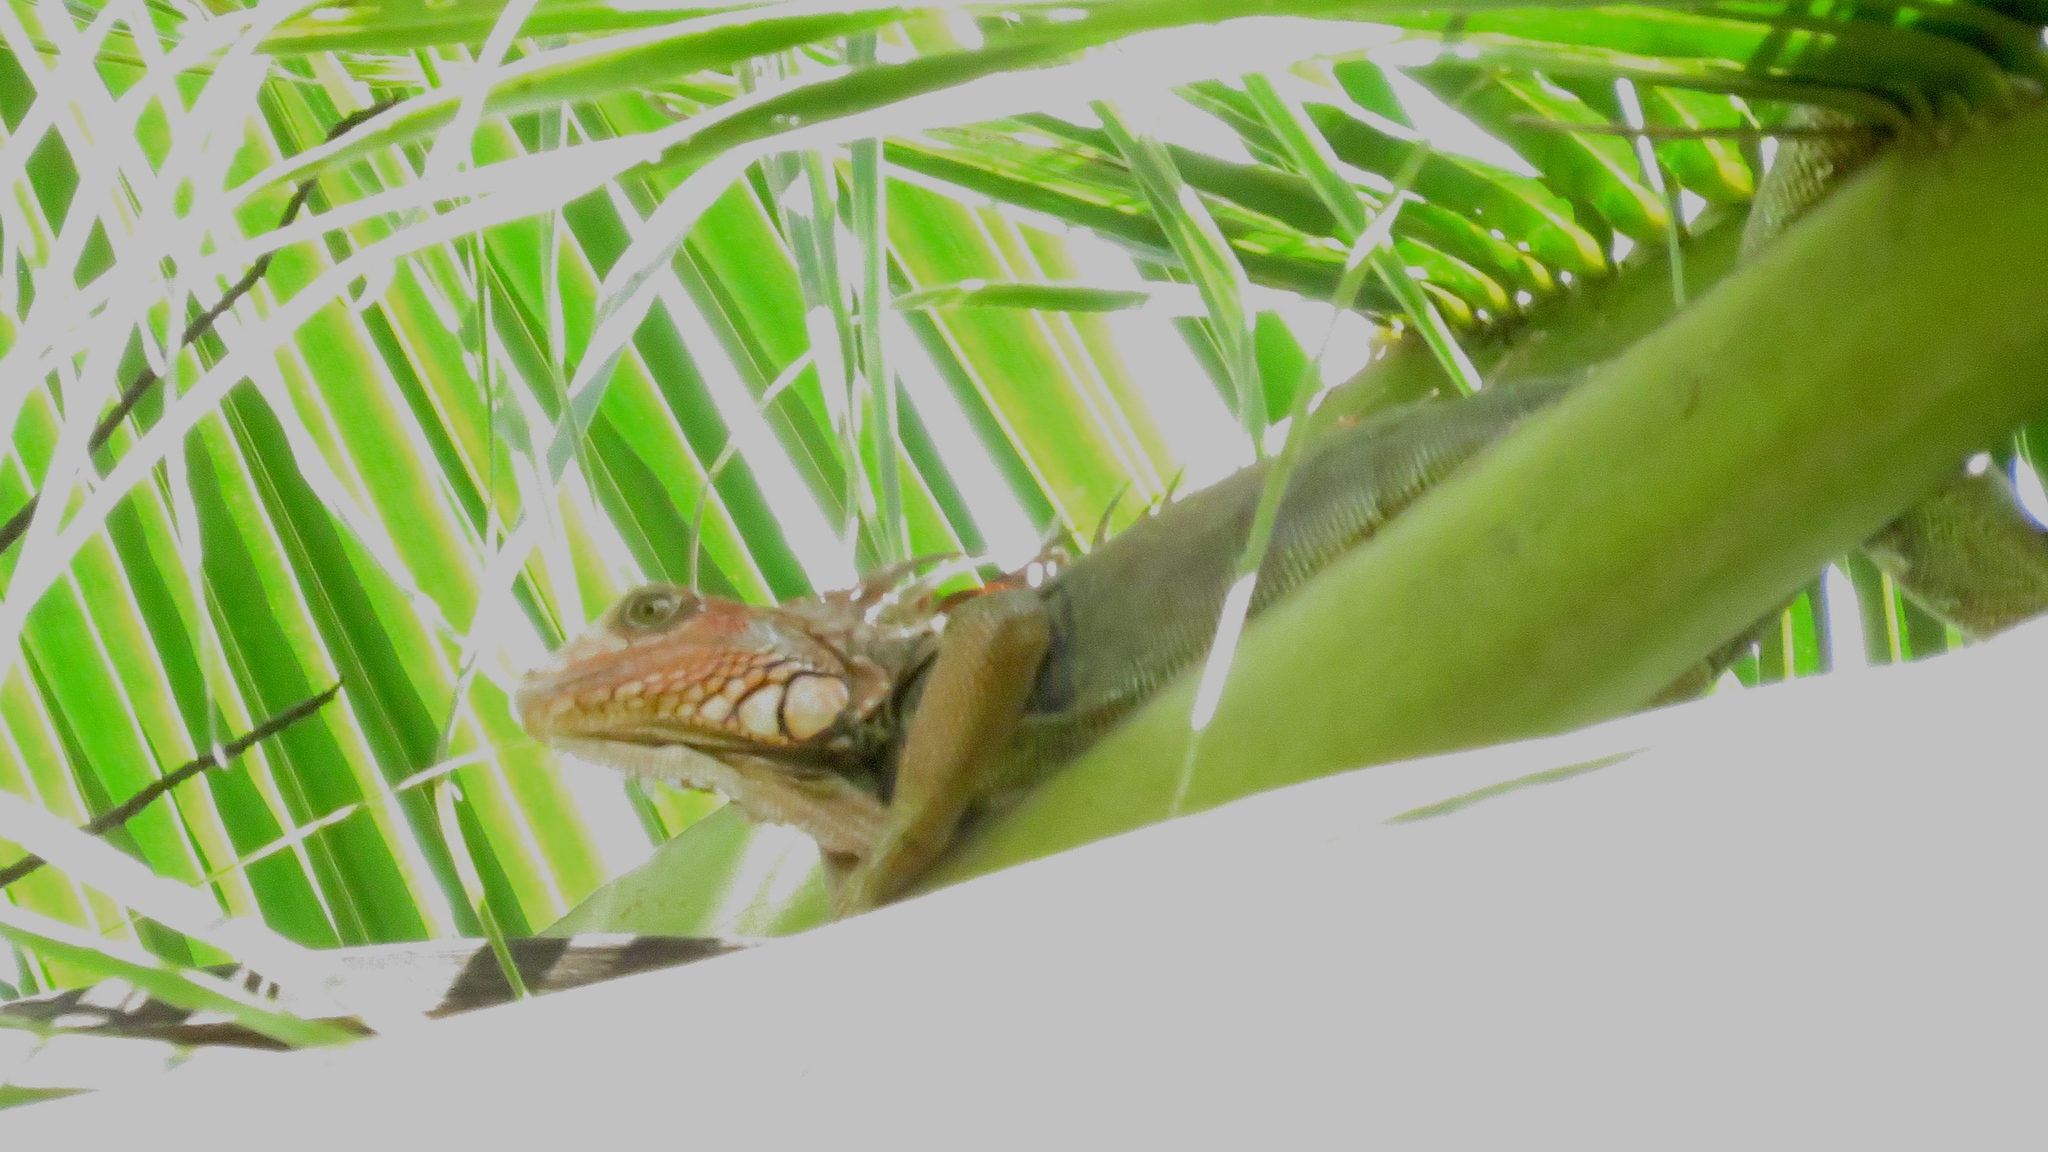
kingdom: Animalia
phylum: Chordata
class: Squamata
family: Iguanidae
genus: Iguana
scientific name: Iguana iguana
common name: Green iguana
